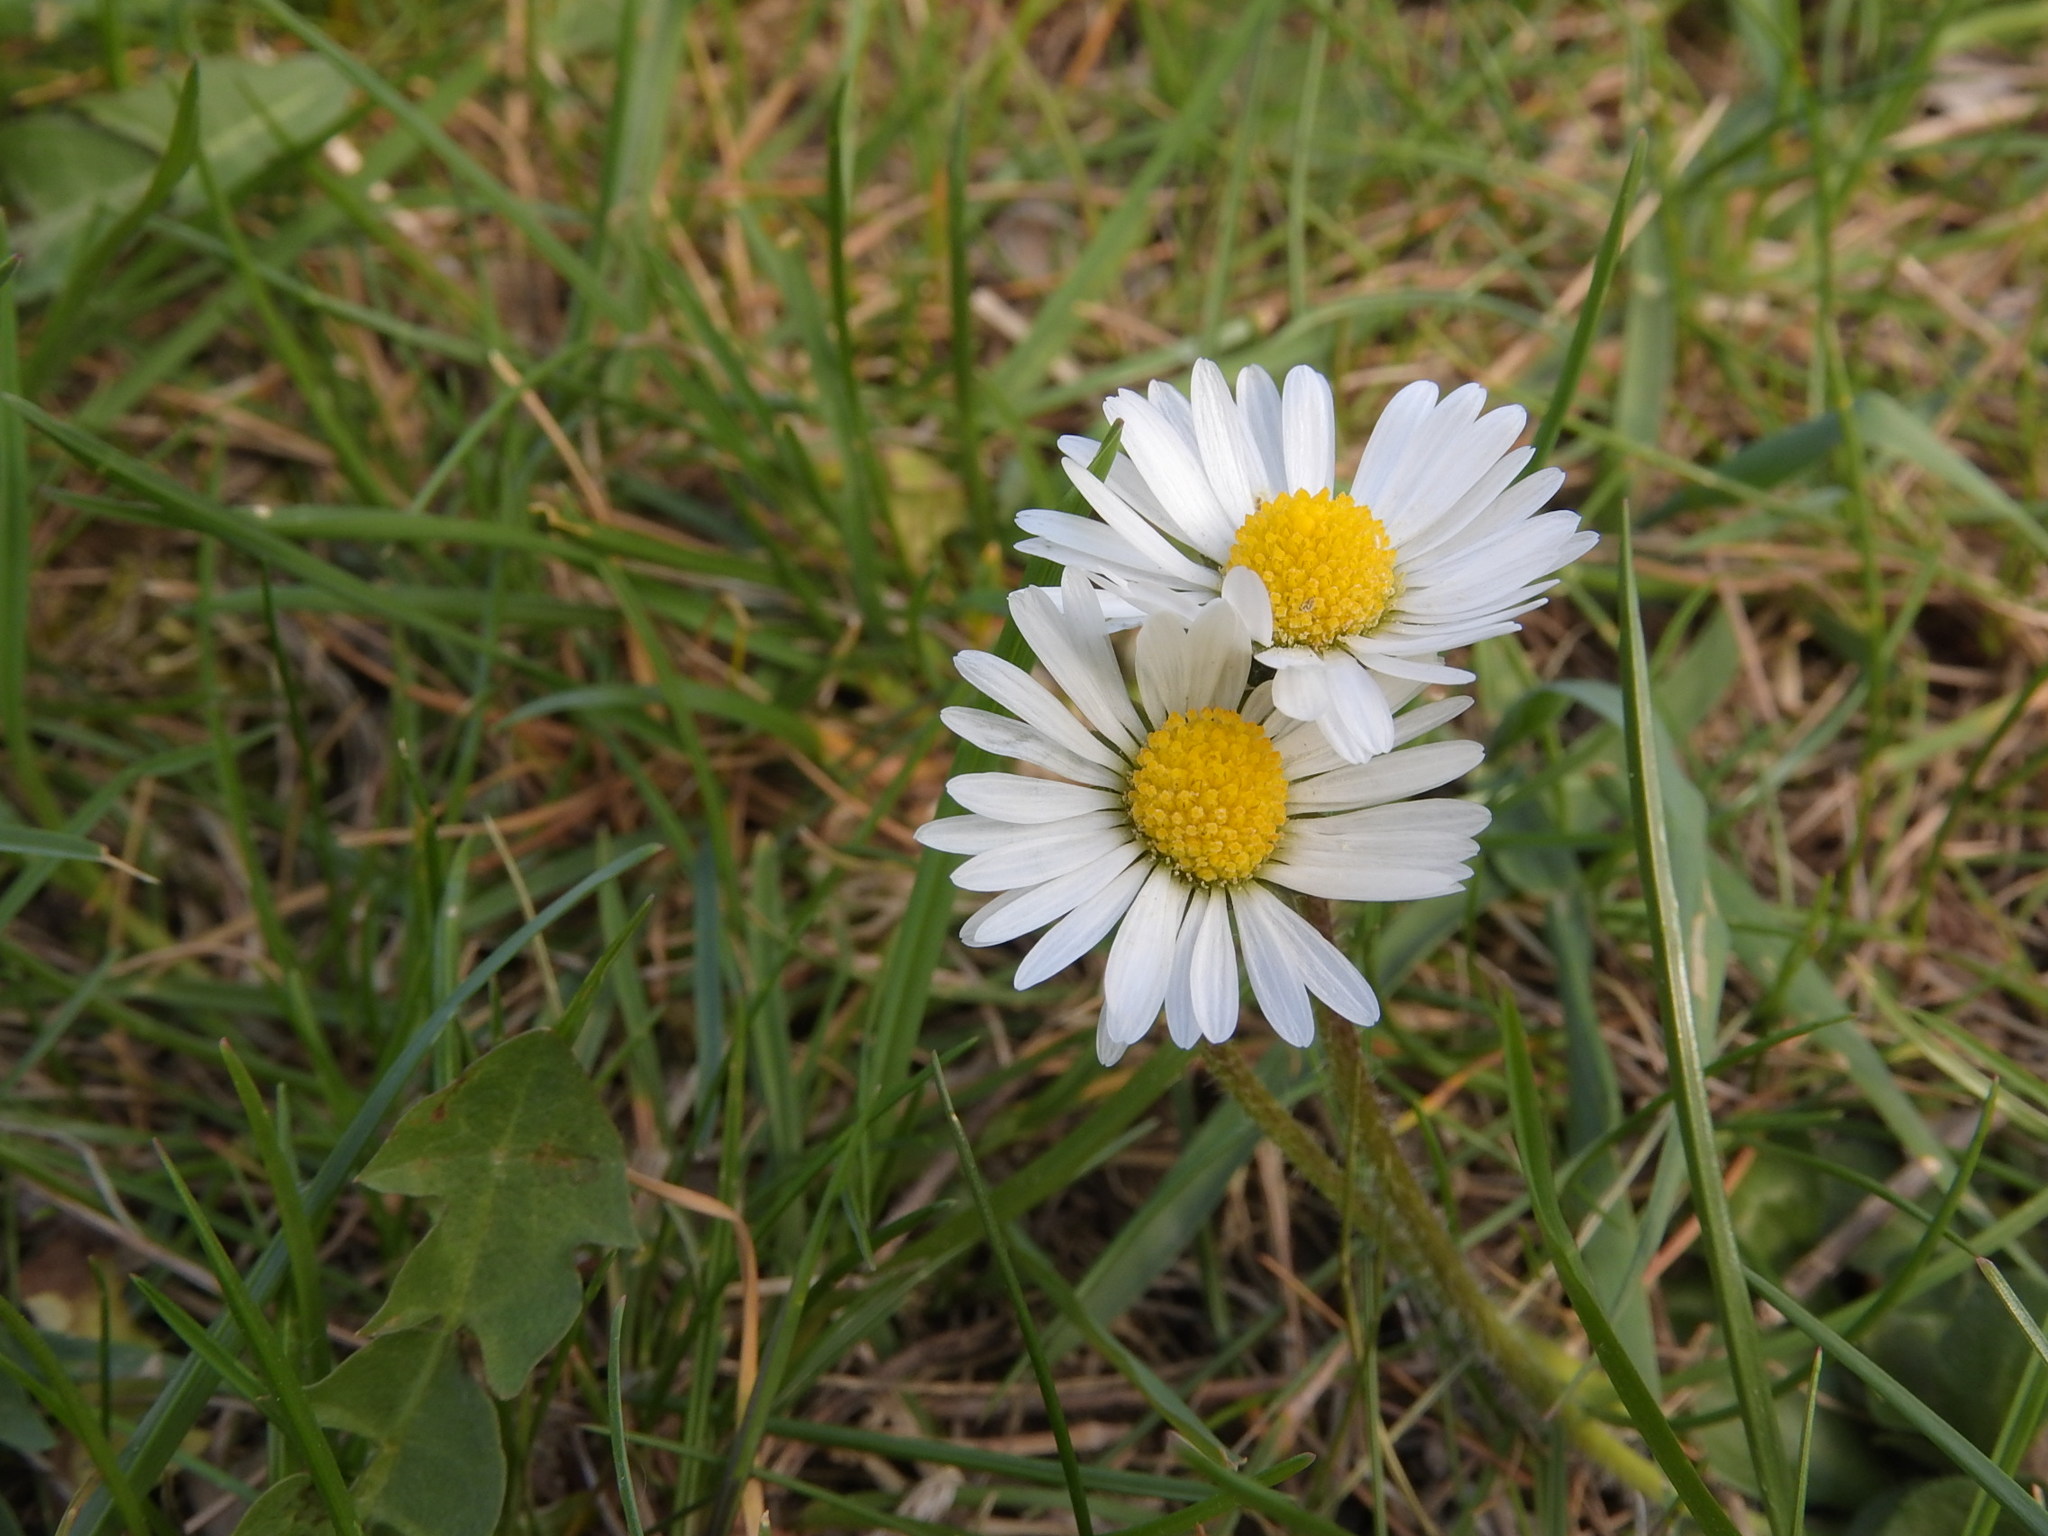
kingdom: Plantae
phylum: Tracheophyta
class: Magnoliopsida
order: Asterales
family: Asteraceae
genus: Bellis
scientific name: Bellis perennis
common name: Lawndaisy
